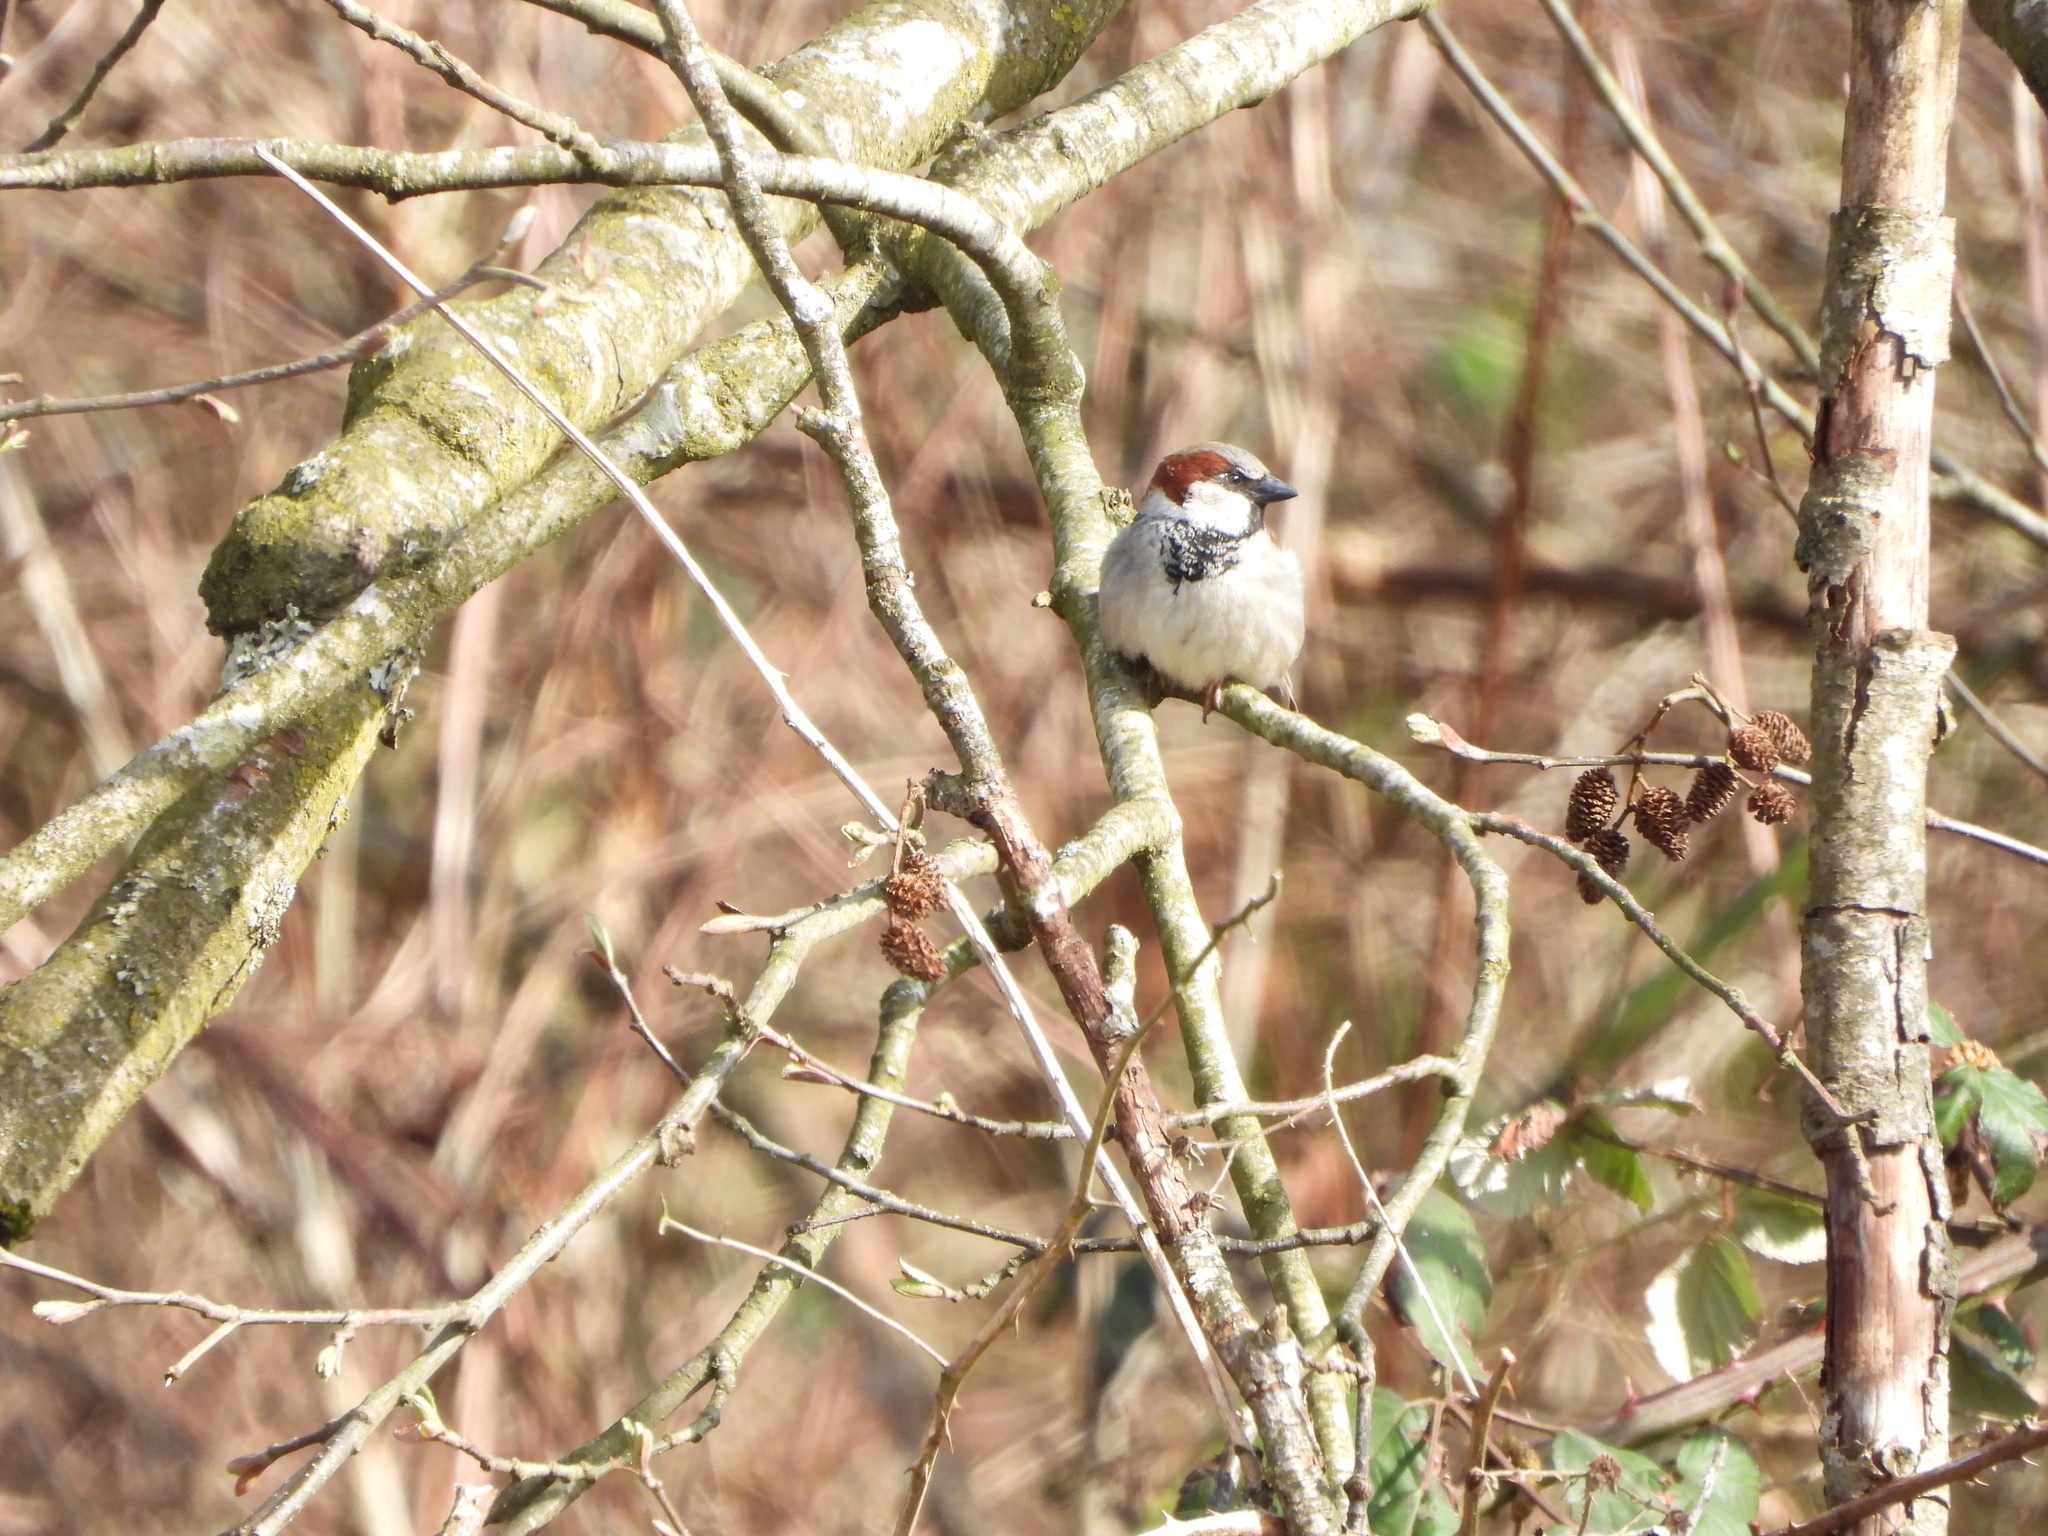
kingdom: Animalia
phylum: Chordata
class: Aves
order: Passeriformes
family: Passeridae
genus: Passer
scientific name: Passer domesticus
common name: House sparrow
